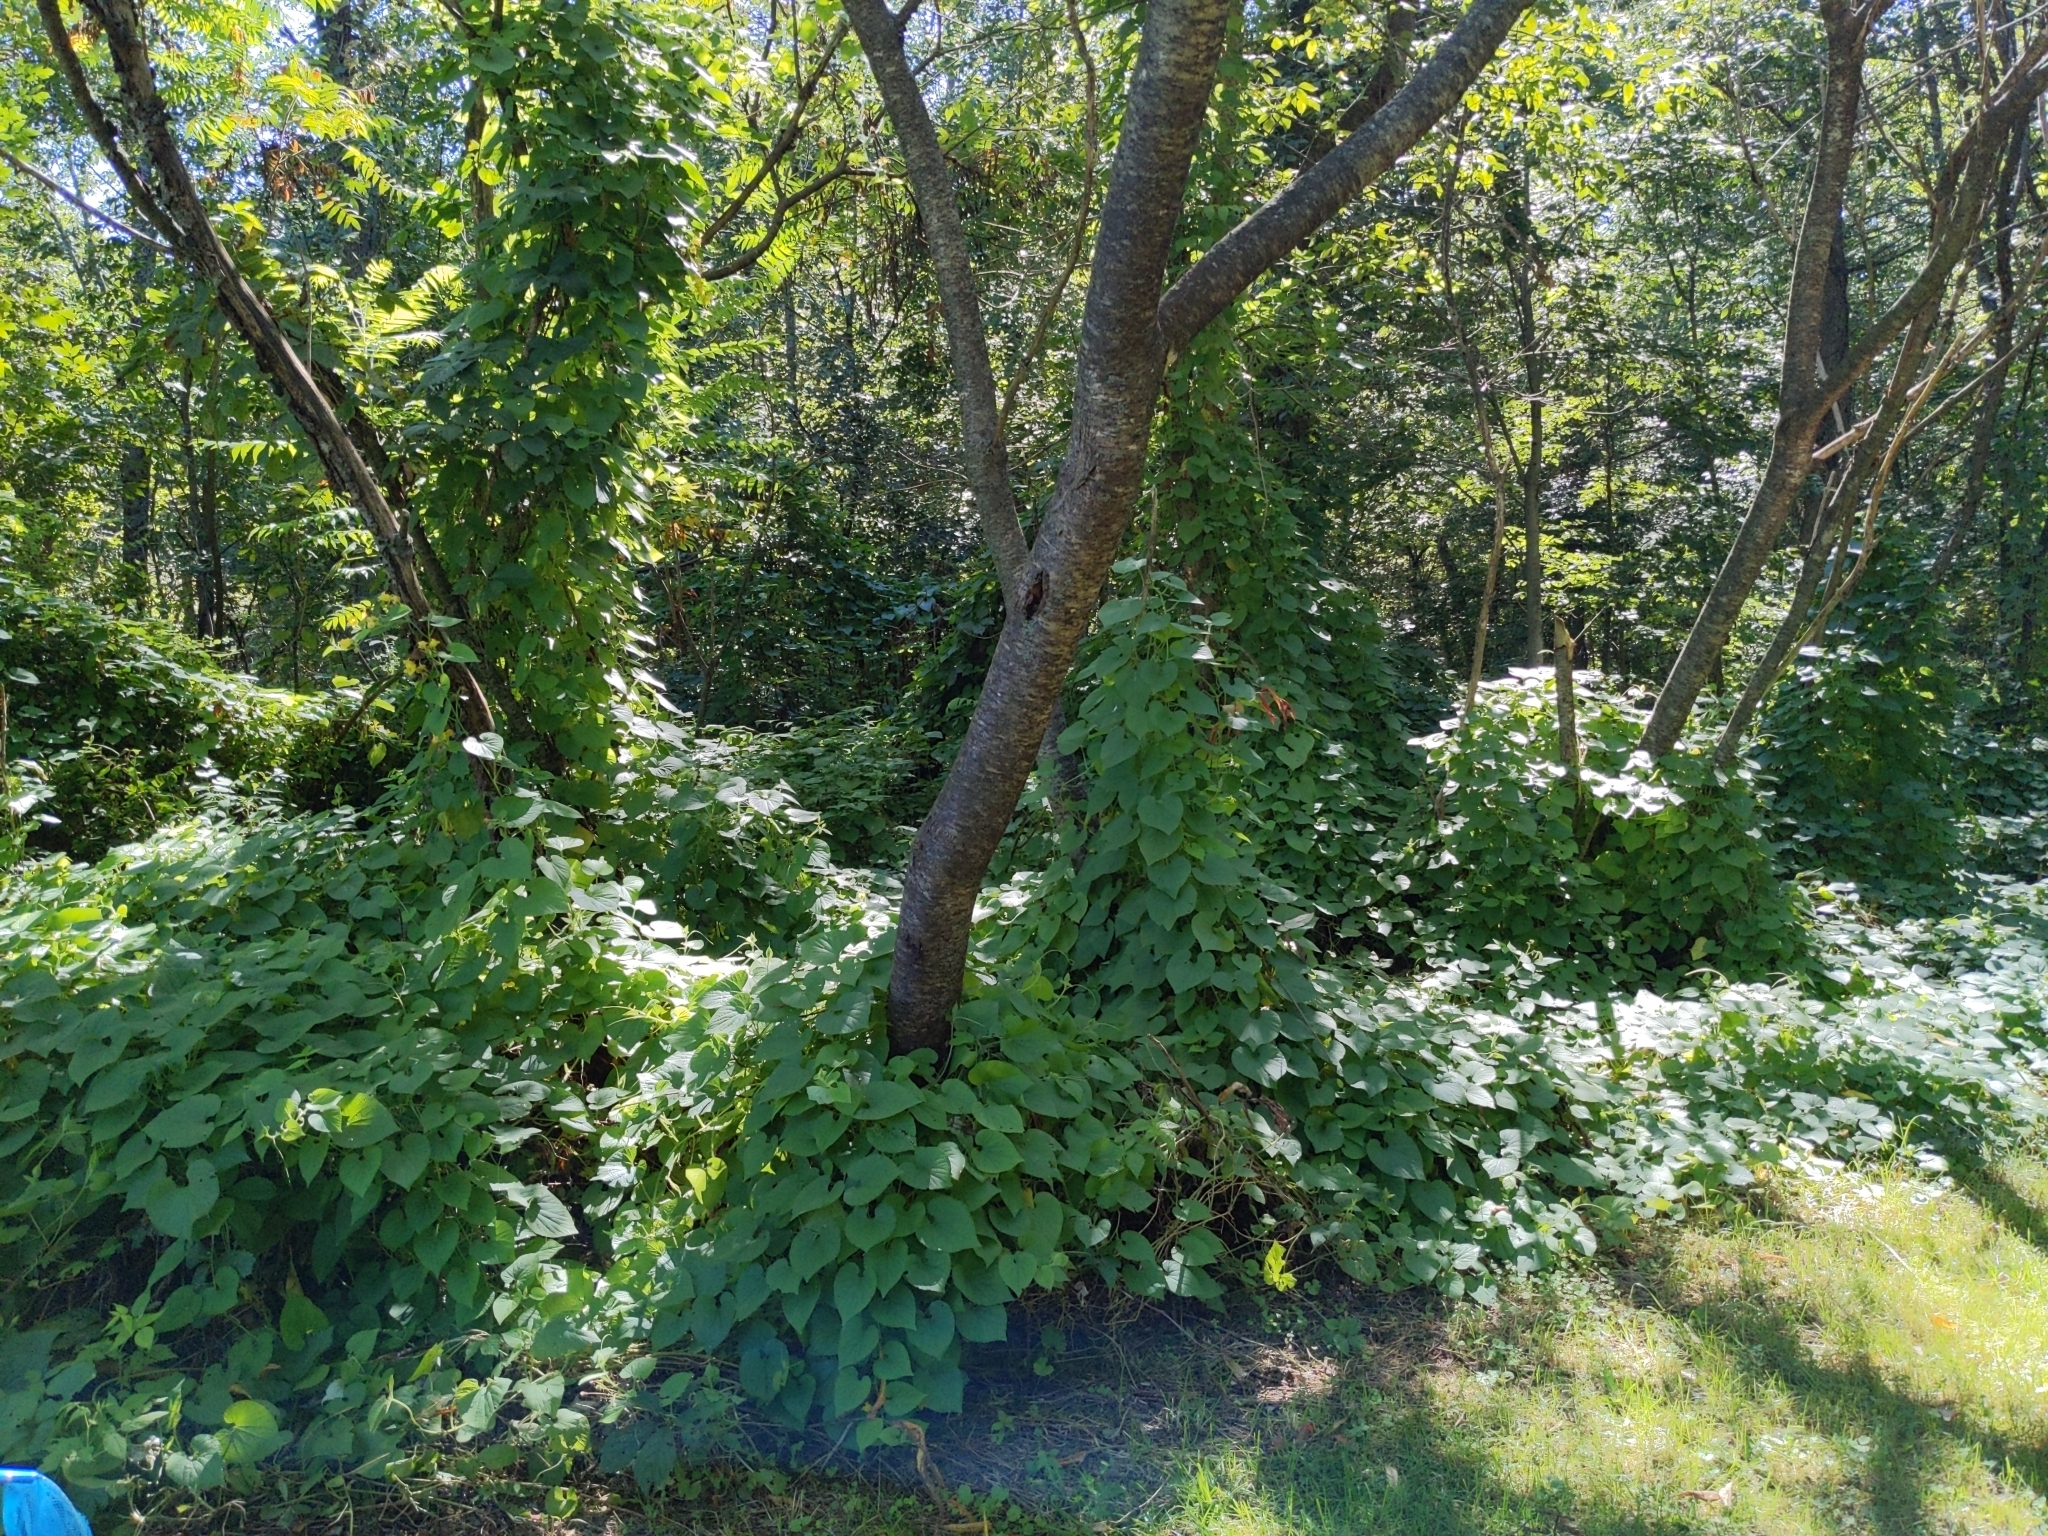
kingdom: Plantae
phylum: Tracheophyta
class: Magnoliopsida
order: Cucurbitales
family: Cucurbitaceae
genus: Thladiantha
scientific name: Thladiantha dubia
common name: Manchu tubergourd
